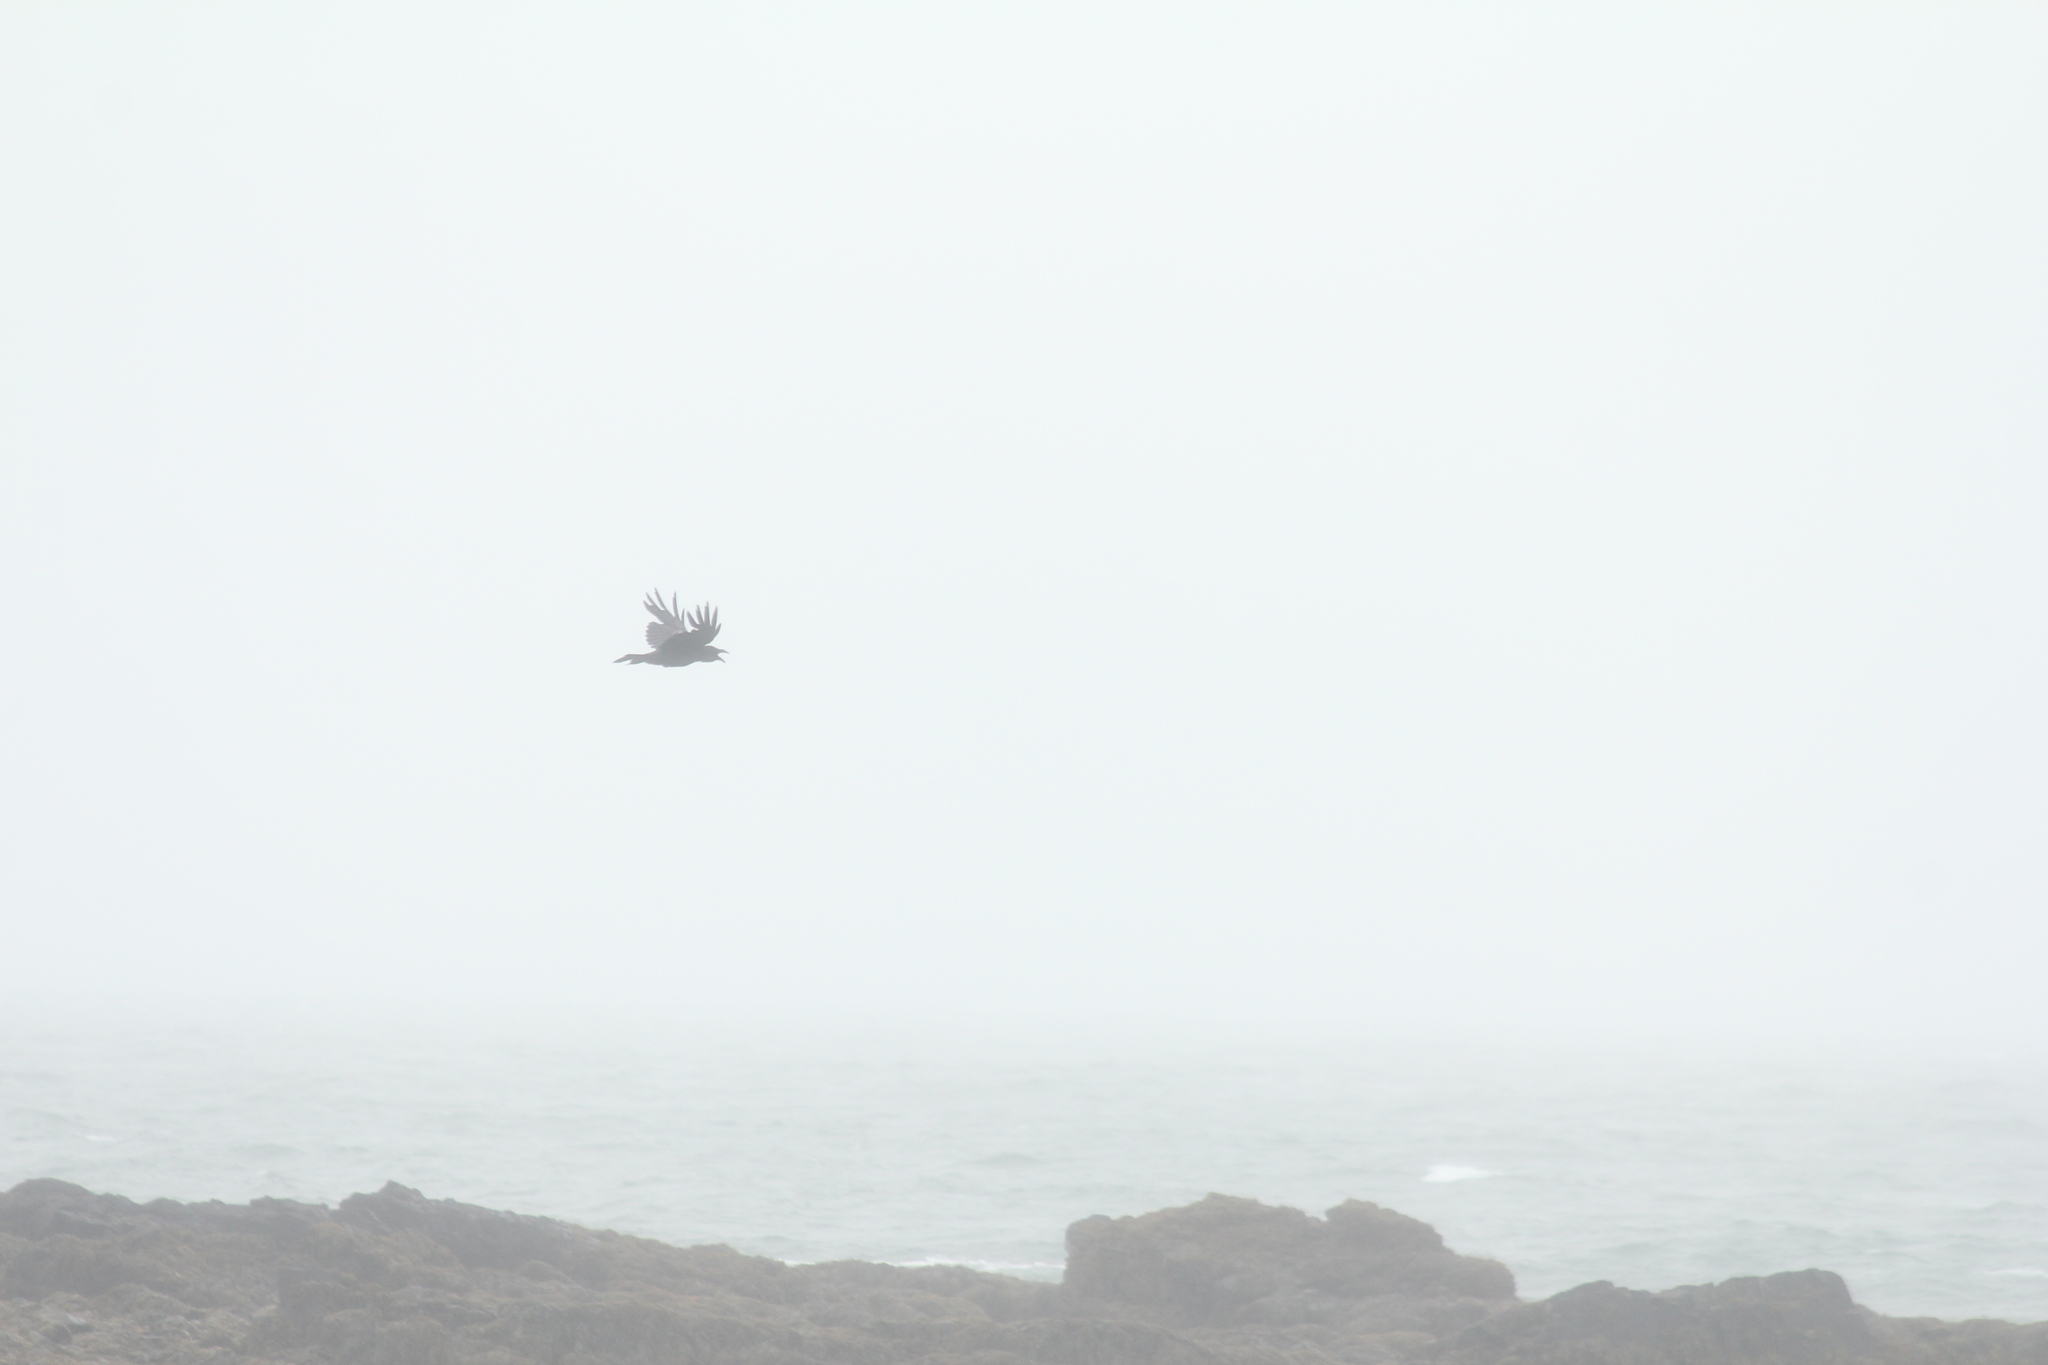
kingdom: Animalia
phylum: Chordata
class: Aves
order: Passeriformes
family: Corvidae
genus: Corvus
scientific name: Corvus corax
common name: Common raven
